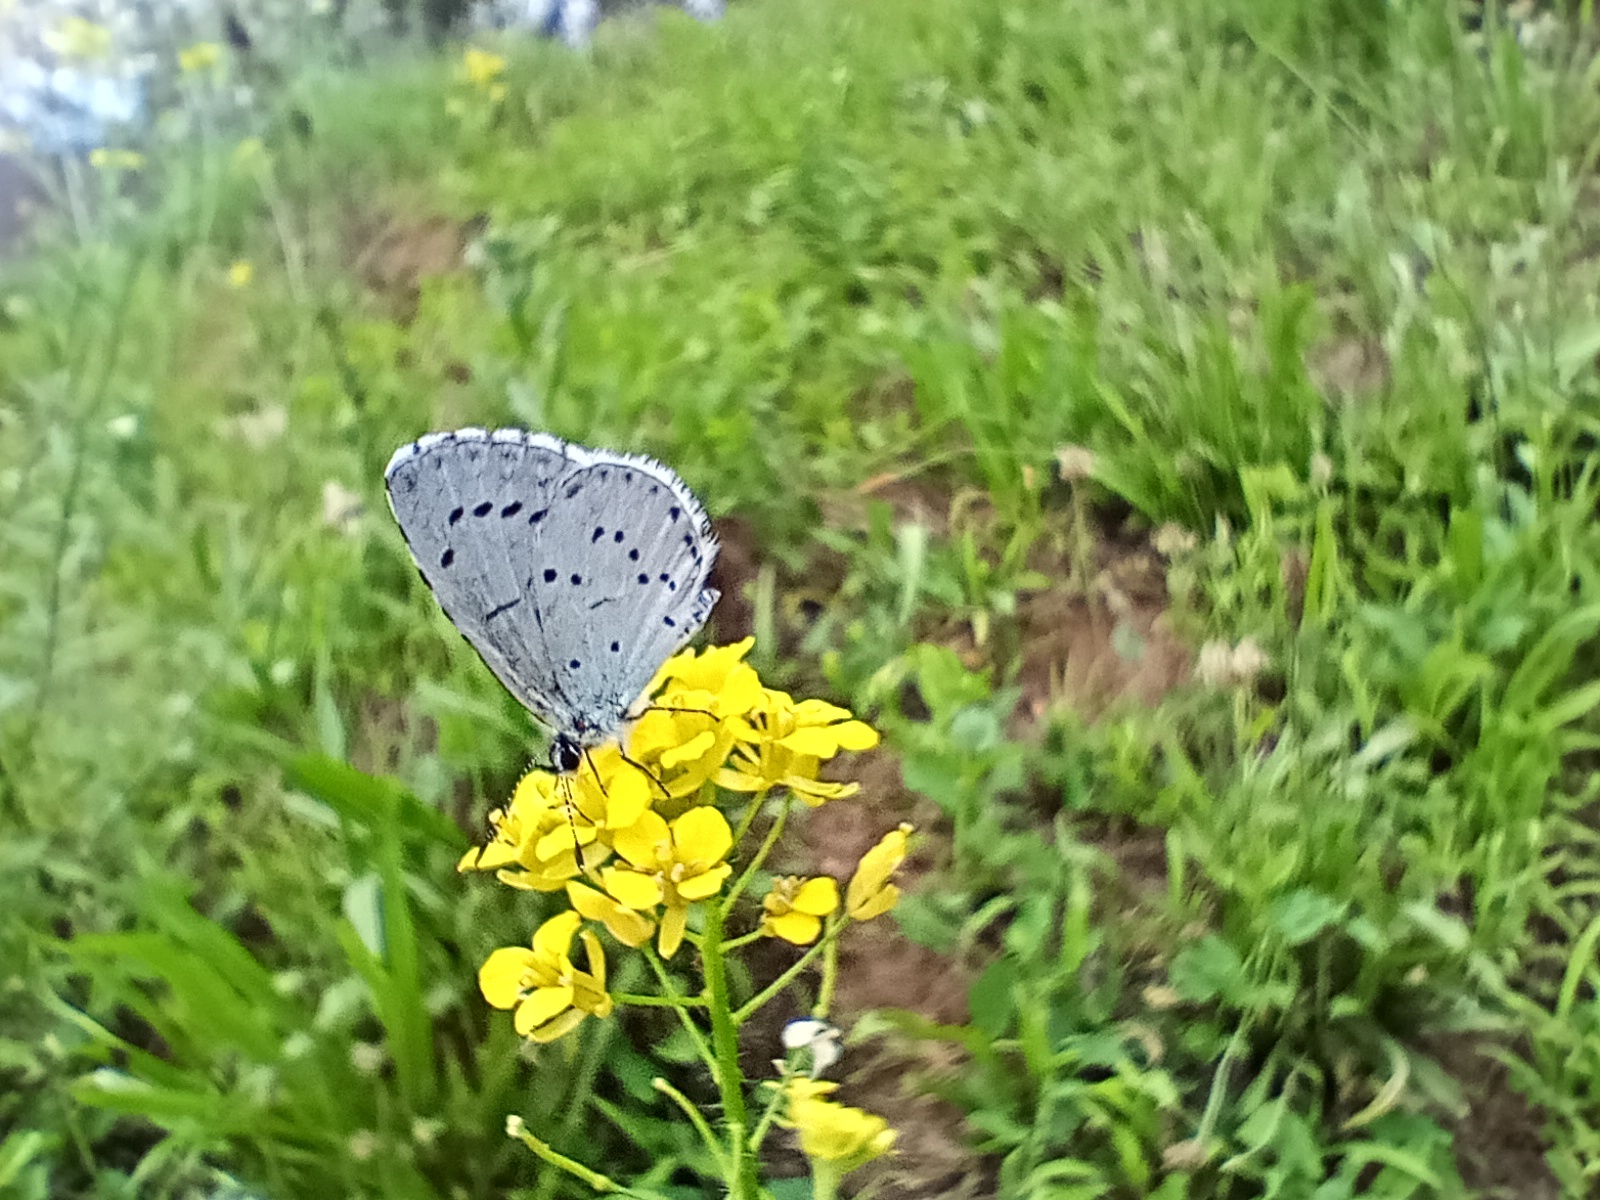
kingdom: Animalia
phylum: Arthropoda
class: Insecta
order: Lepidoptera
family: Lycaenidae
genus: Celastrina
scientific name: Celastrina argiolus
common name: Holly blue
